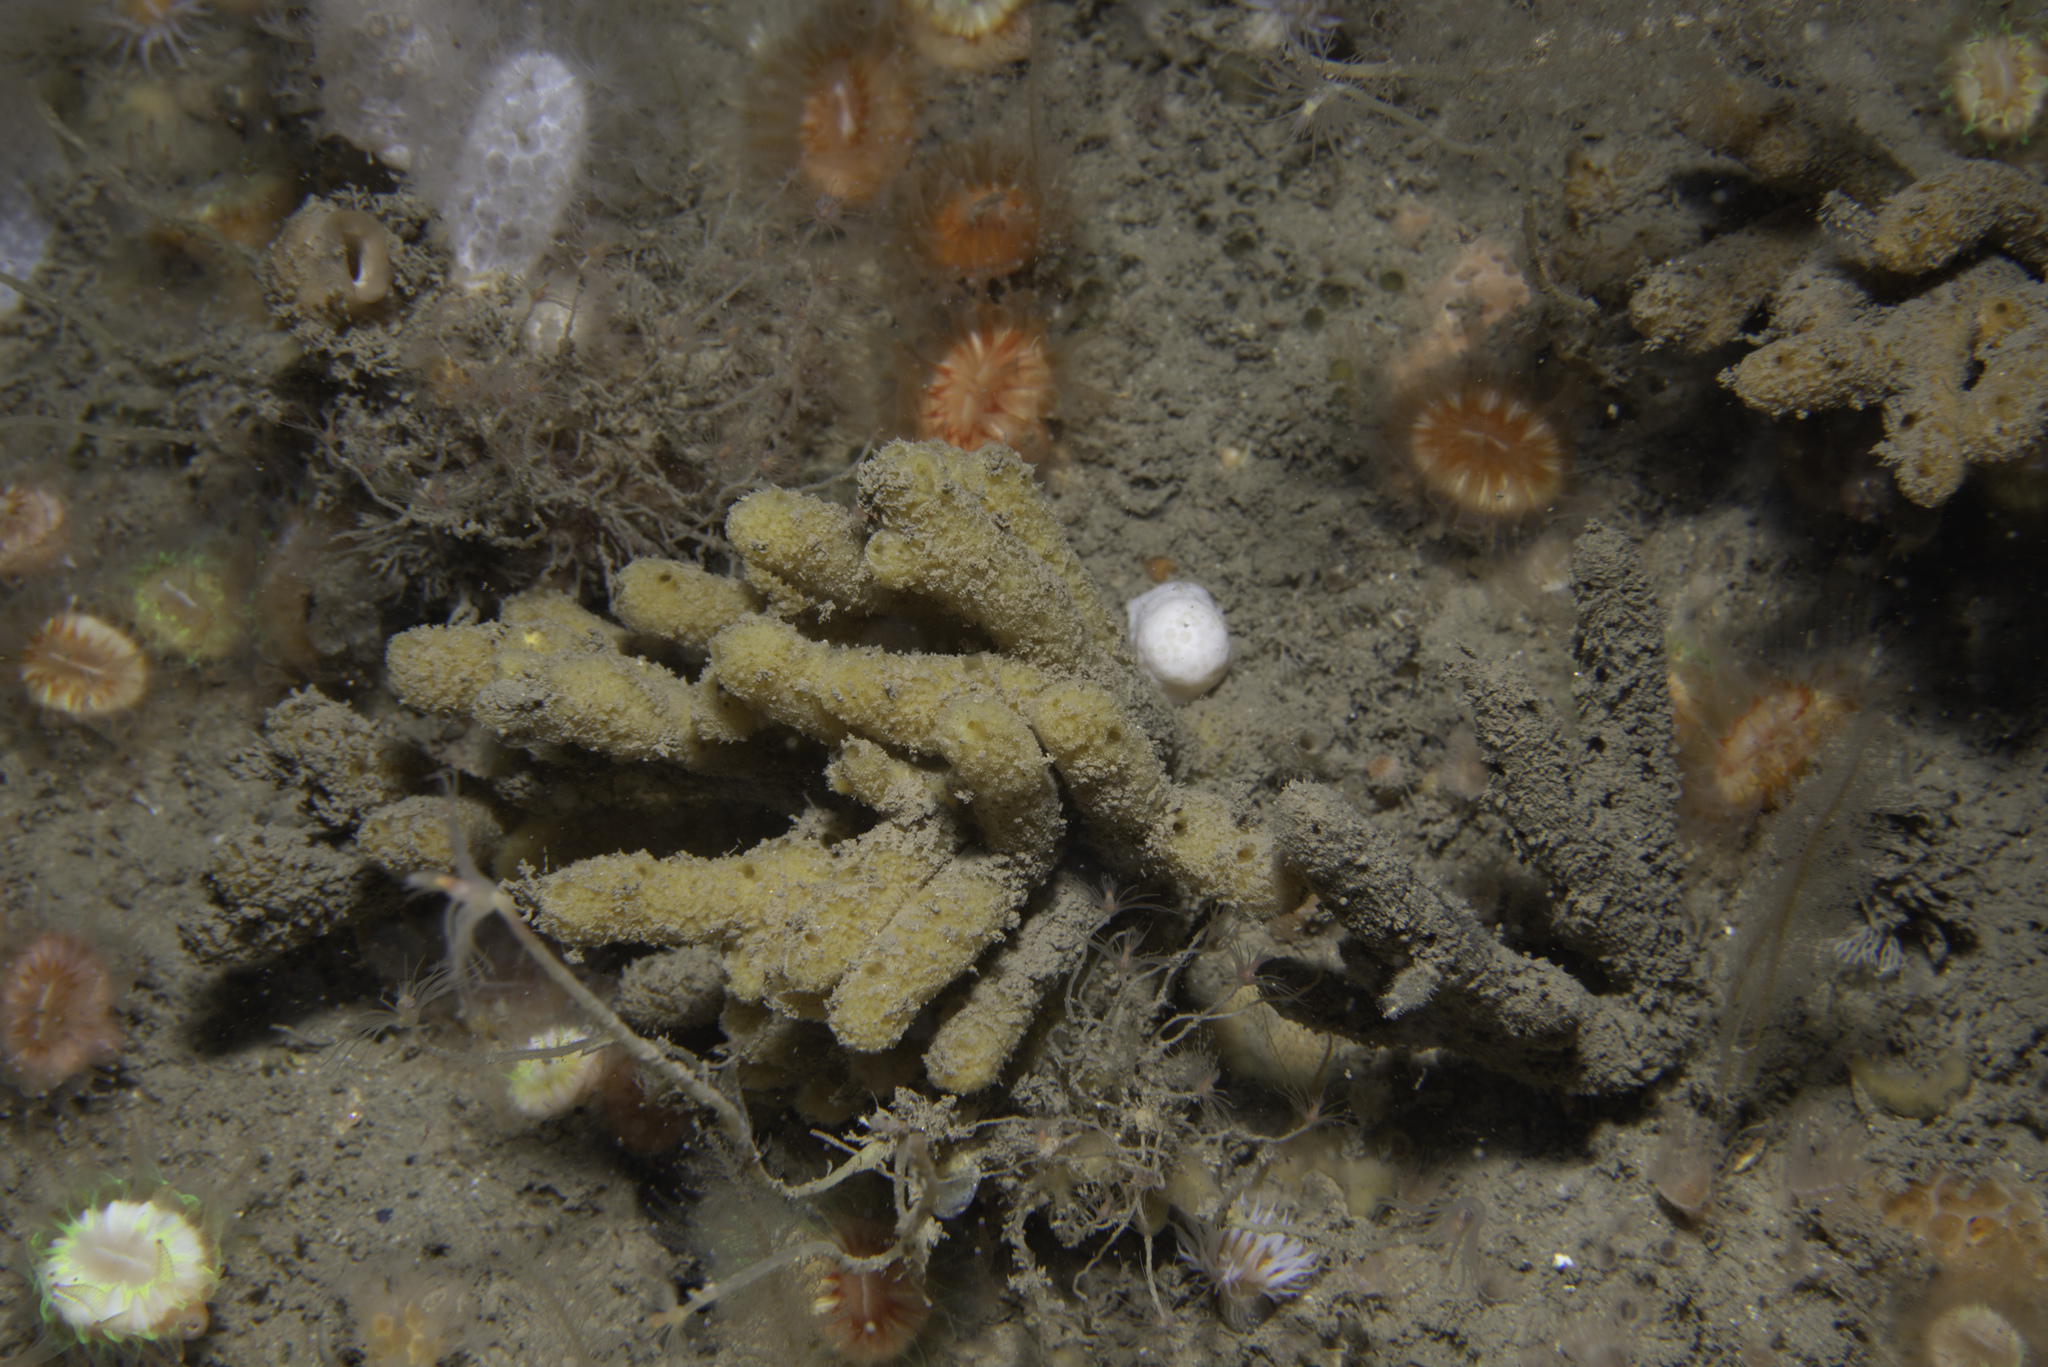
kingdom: Animalia
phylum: Porifera
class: Demospongiae
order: Axinellida
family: Stelligeridae
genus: Stelligera
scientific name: Stelligera stuposa
